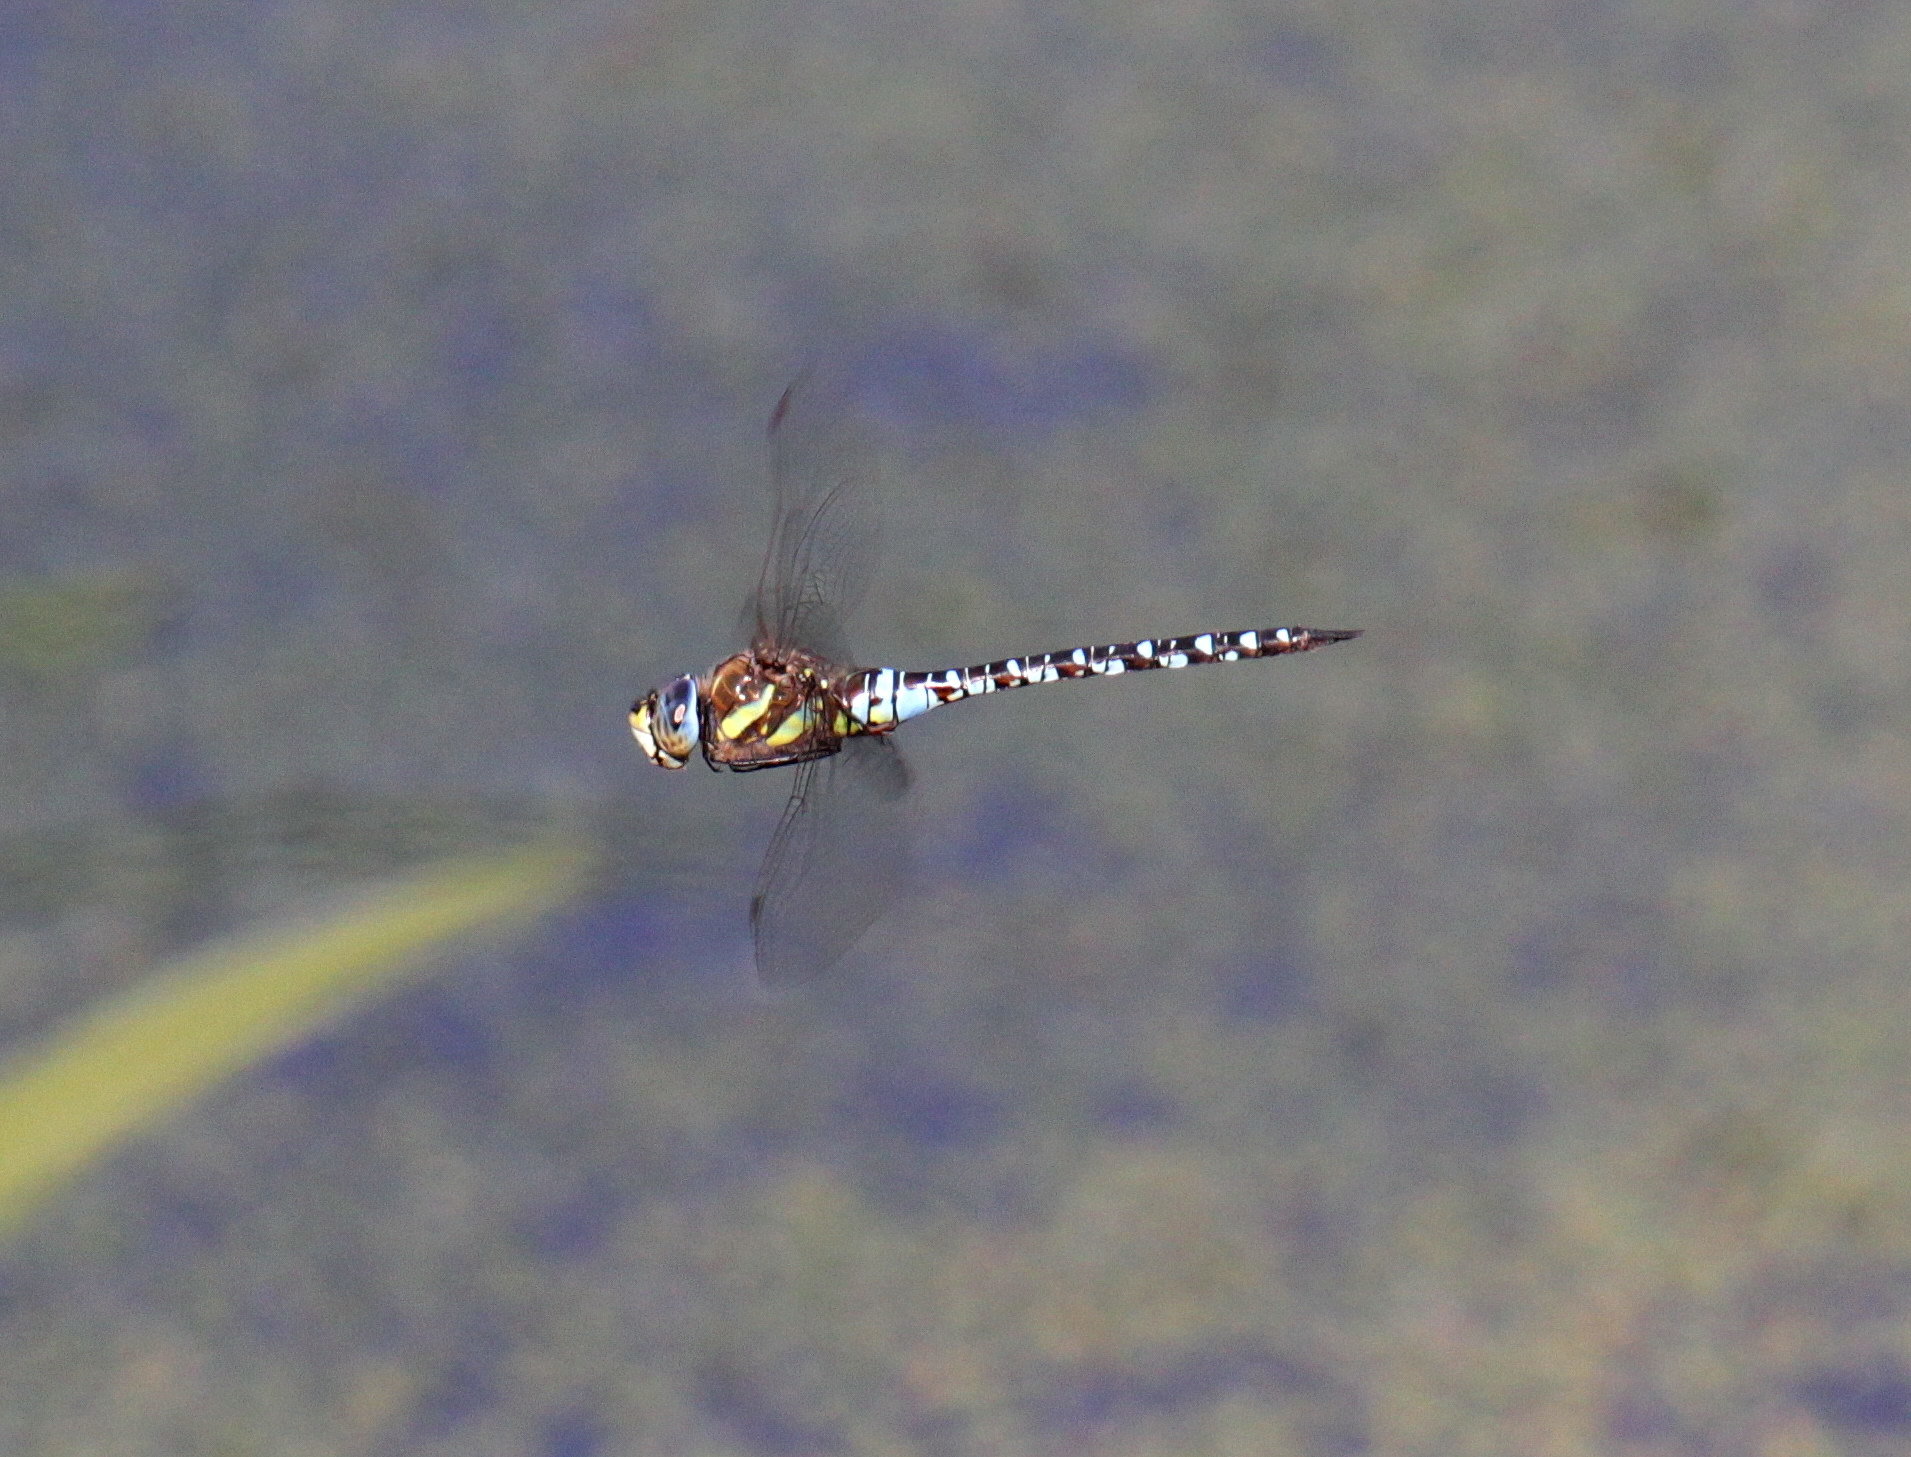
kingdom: Animalia
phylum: Arthropoda
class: Insecta
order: Odonata
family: Aeshnidae
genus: Aeshna
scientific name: Aeshna mixta
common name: Migrant hawker
